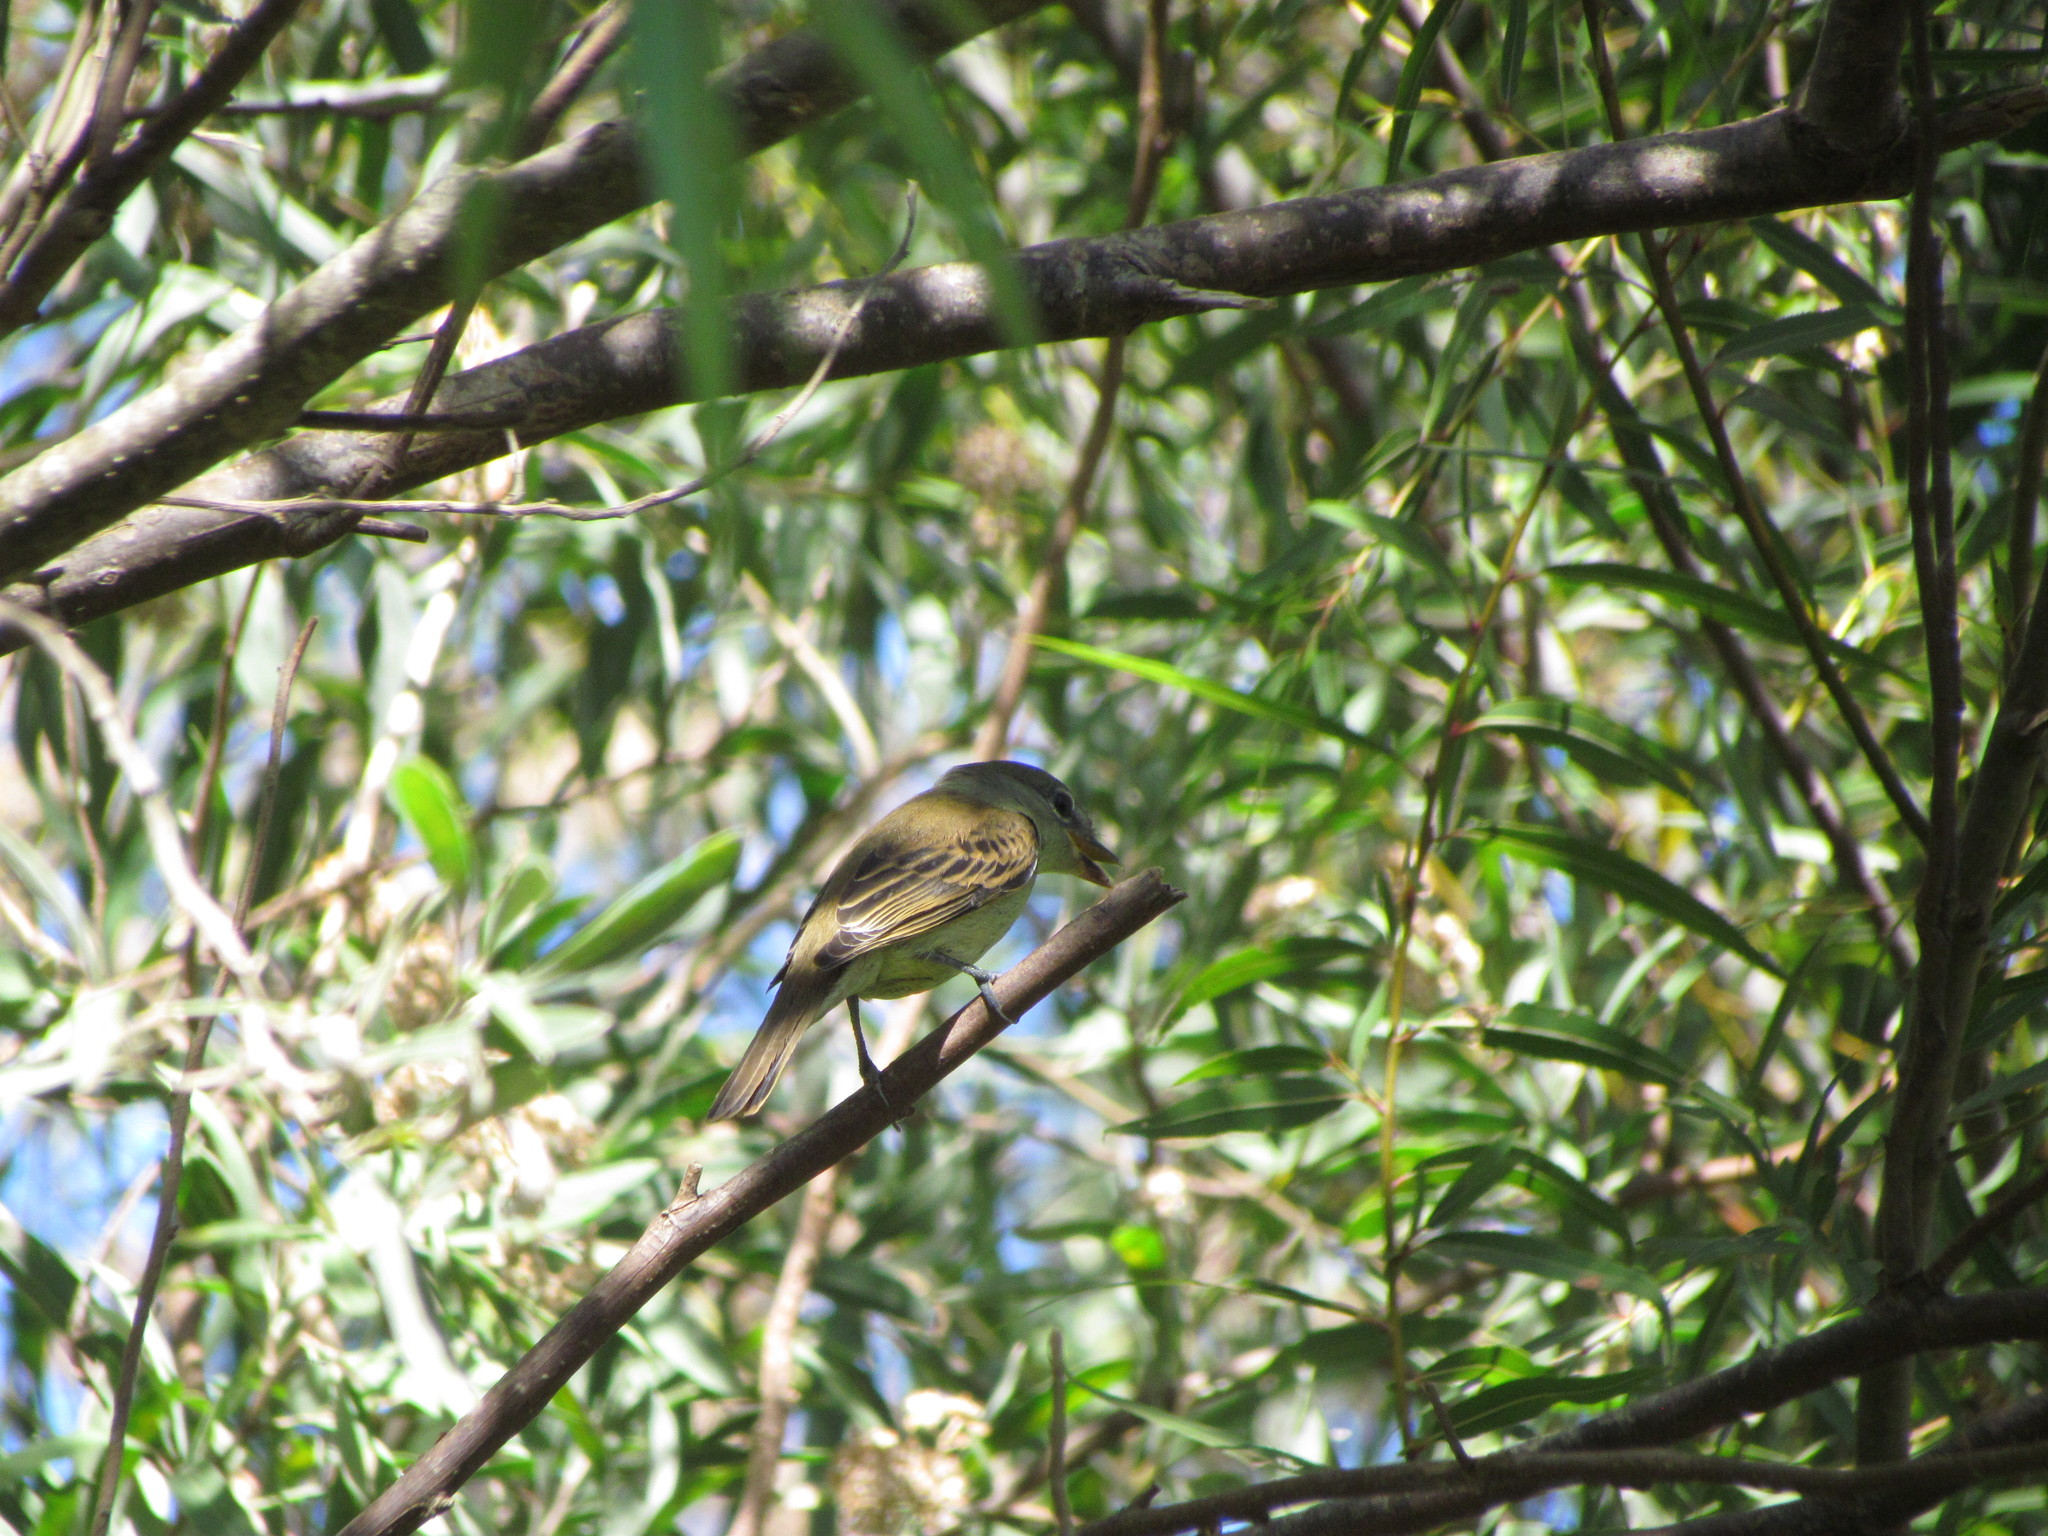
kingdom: Animalia
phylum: Chordata
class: Aves
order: Passeriformes
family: Cotingidae
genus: Pachyramphus
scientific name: Pachyramphus polychopterus
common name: White-winged becard
